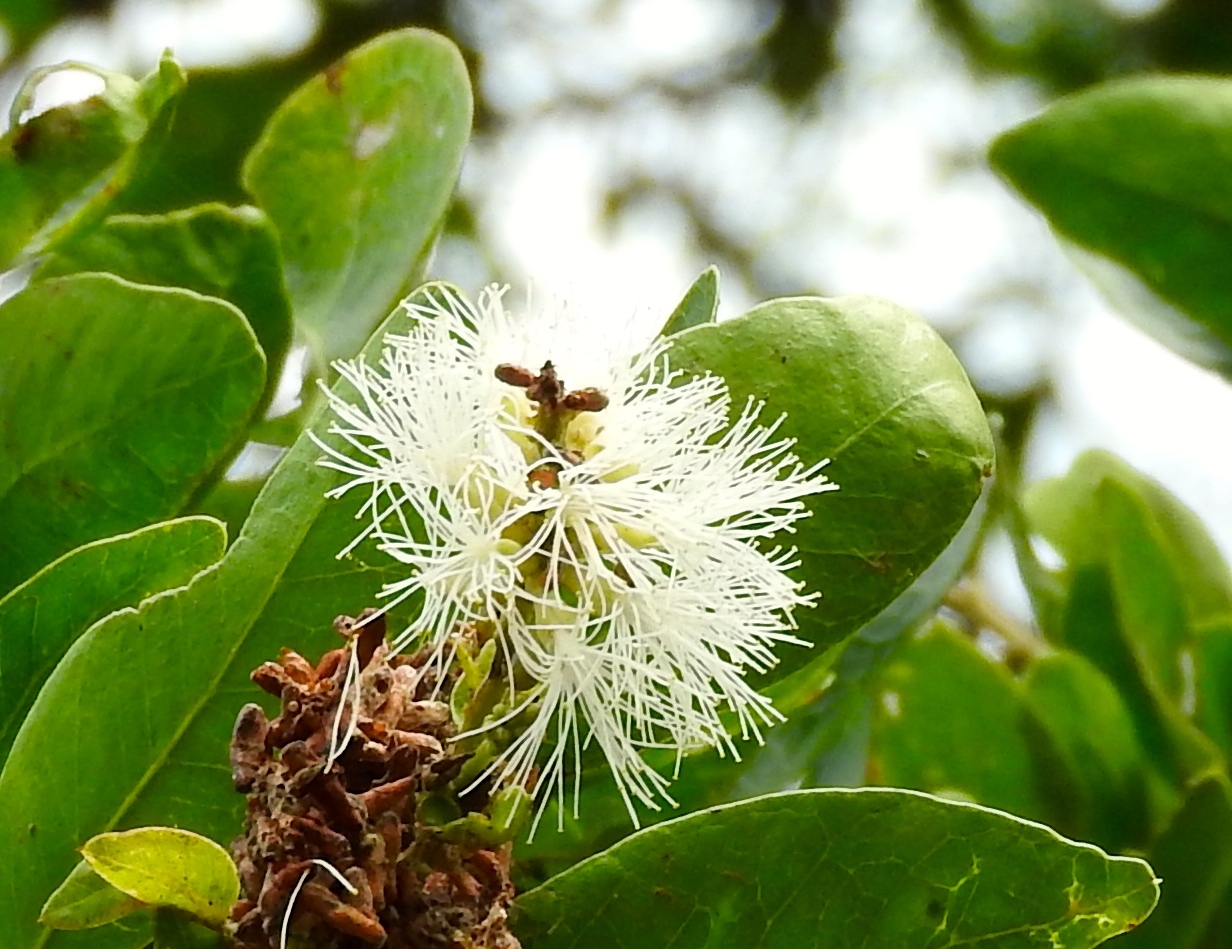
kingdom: Plantae
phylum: Tracheophyta
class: Magnoliopsida
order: Fabales
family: Fabaceae
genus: Pithecellobium
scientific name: Pithecellobium lanceolatum
